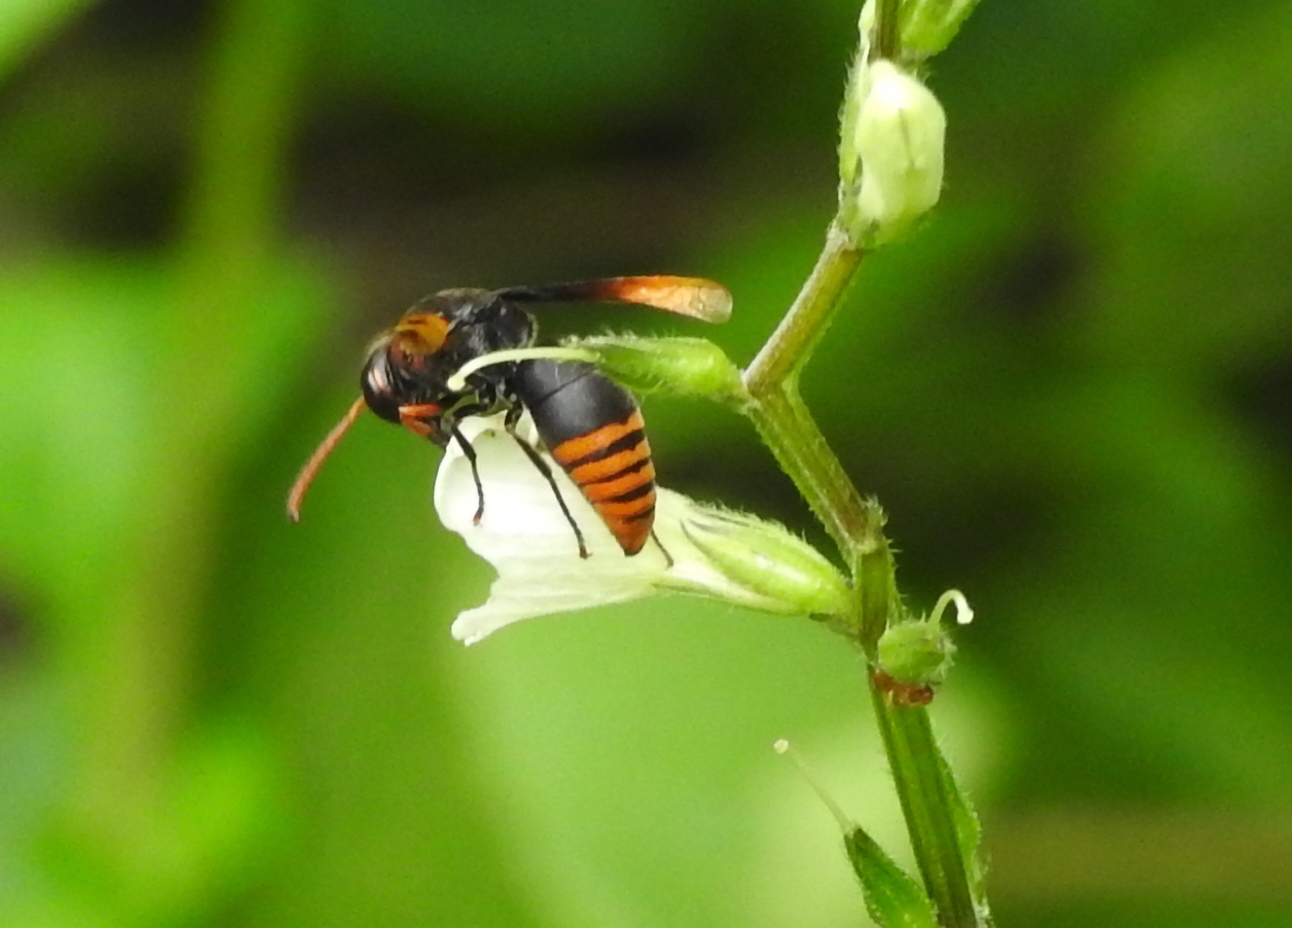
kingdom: Animalia
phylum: Arthropoda
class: Insecta
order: Hymenoptera
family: Eumenidae
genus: Rhynchium
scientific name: Rhynchium haemorrhoidale
